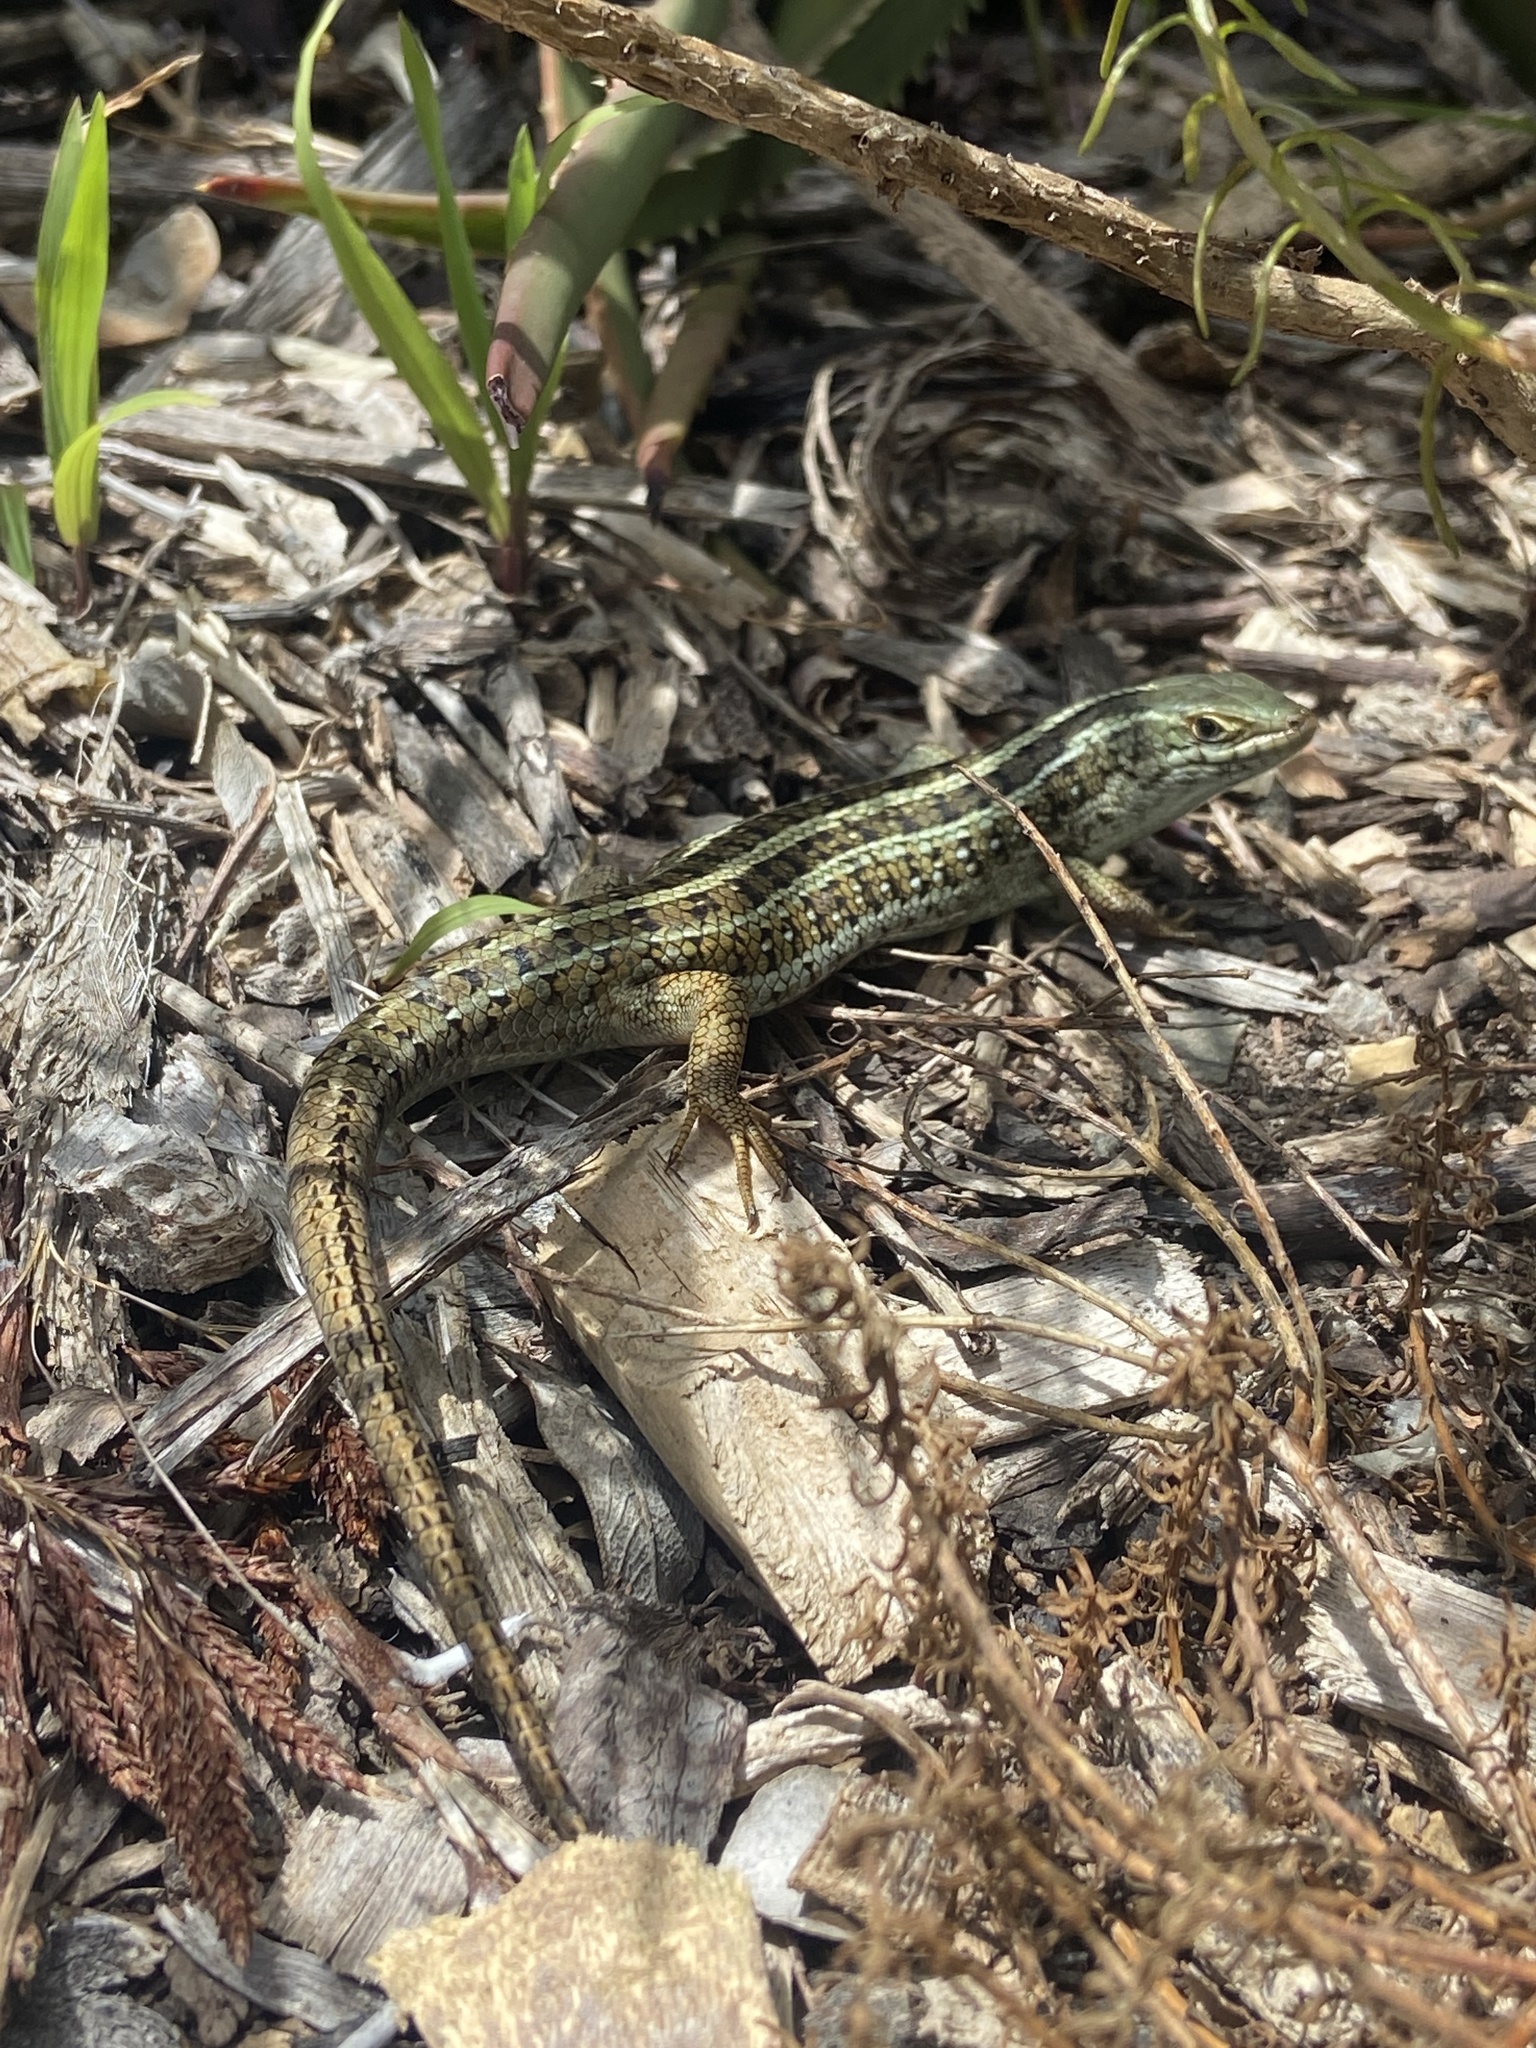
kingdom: Animalia
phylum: Chordata
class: Squamata
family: Scincidae
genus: Trachylepis
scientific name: Trachylepis capensis
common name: Cape skink
